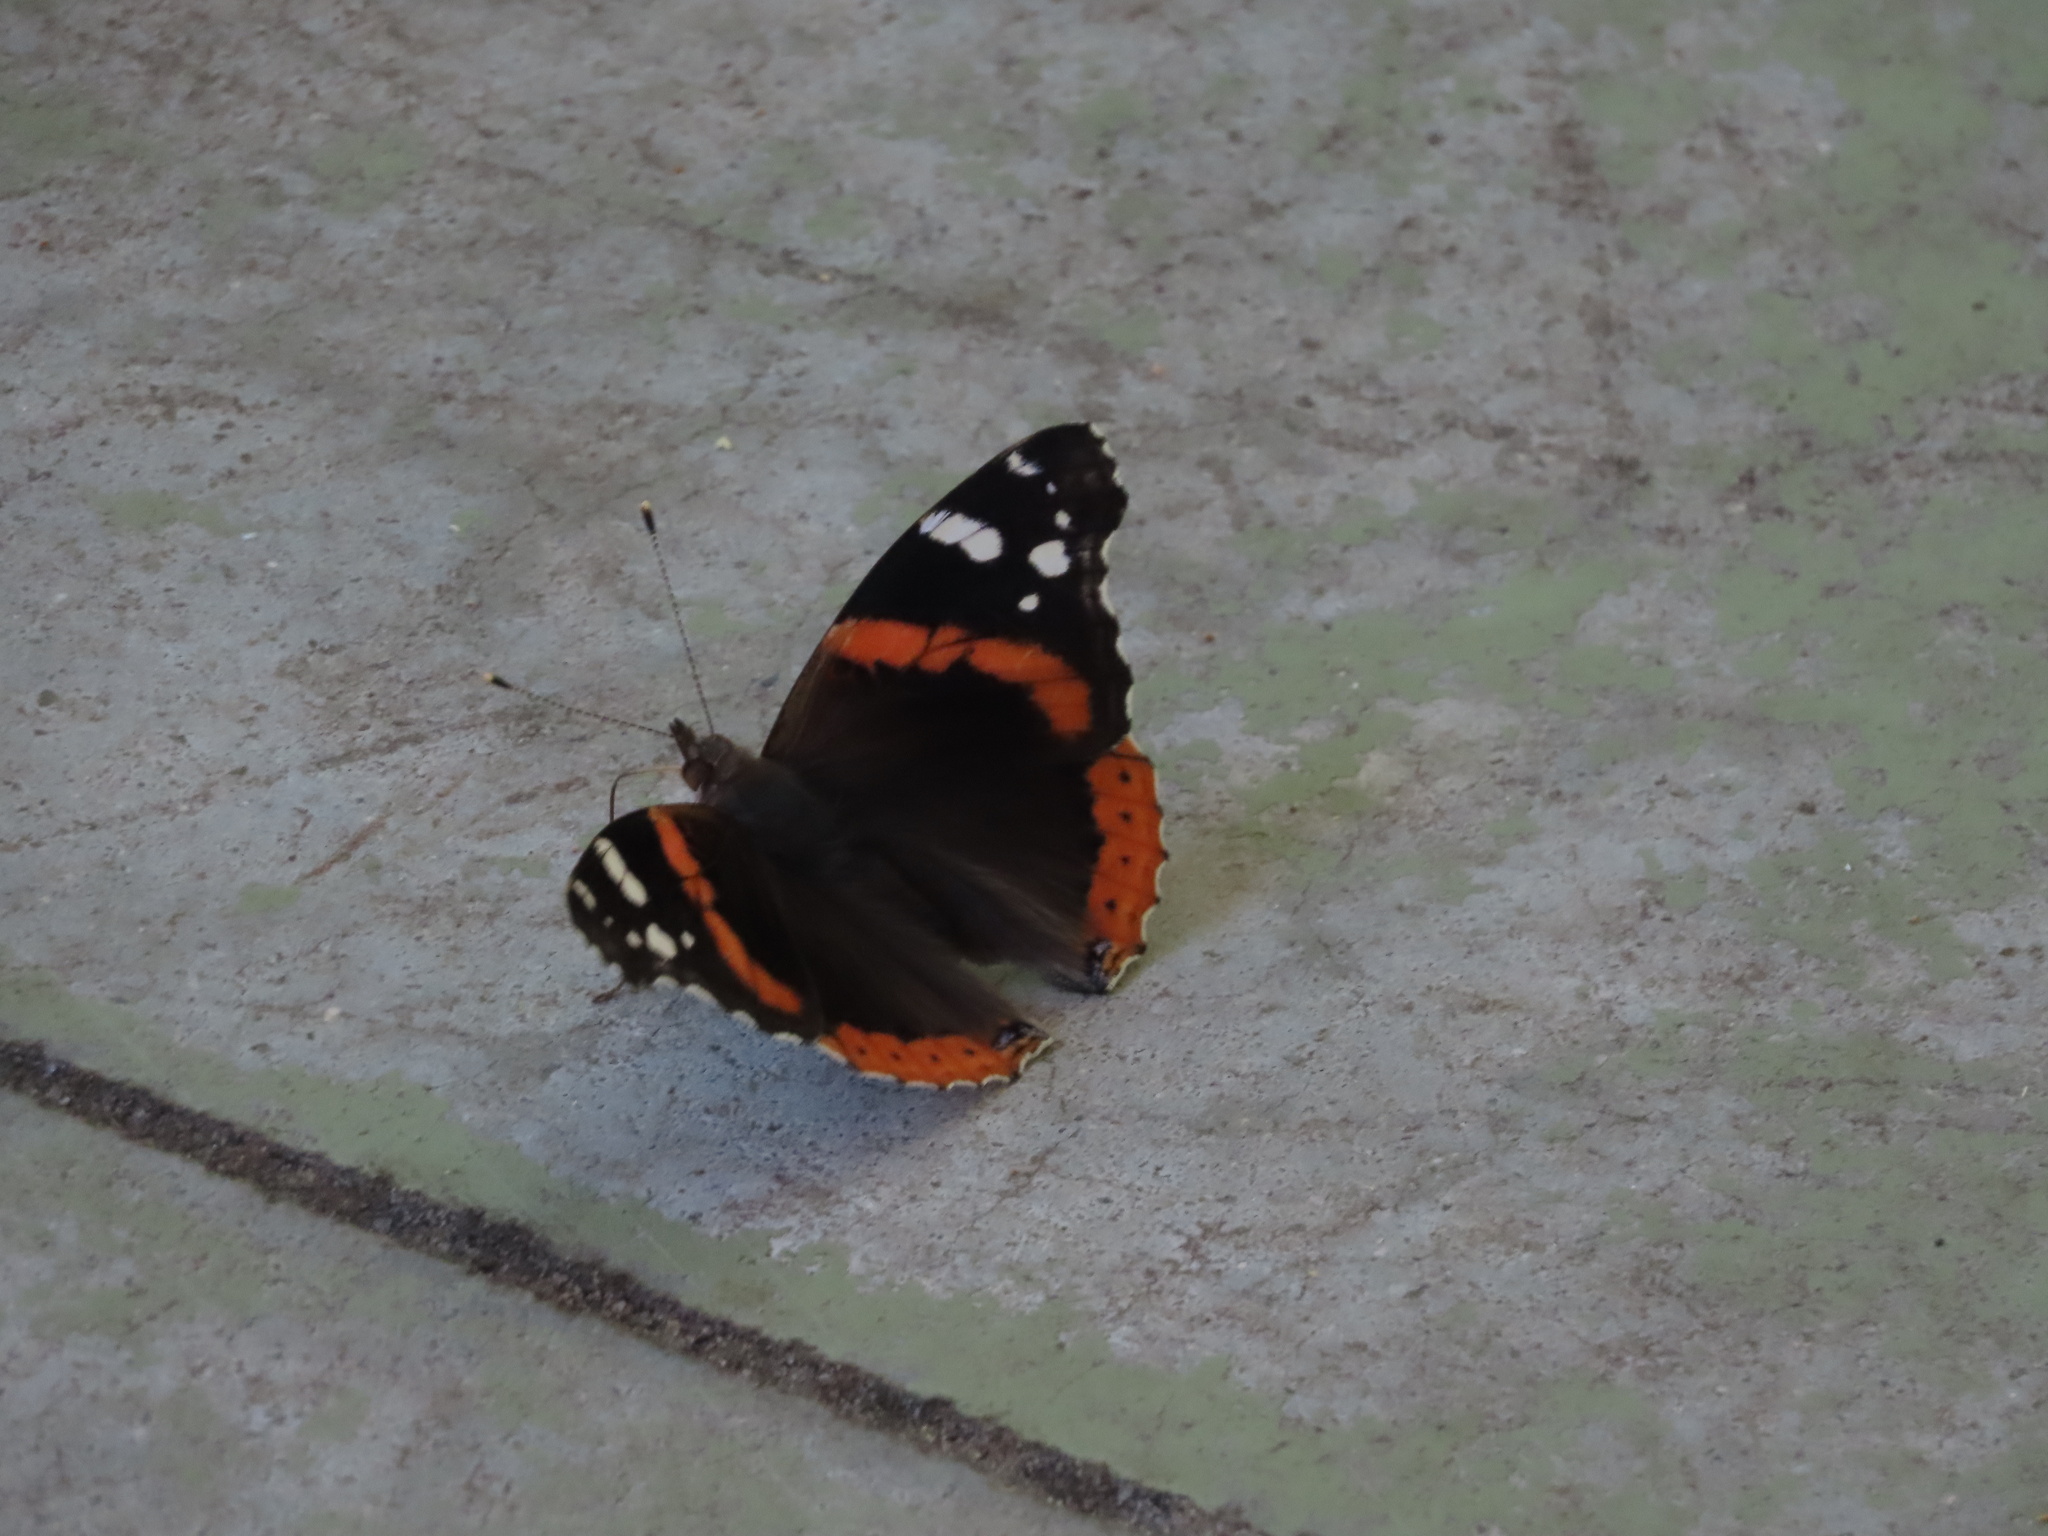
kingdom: Animalia
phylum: Arthropoda
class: Insecta
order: Lepidoptera
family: Nymphalidae
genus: Vanessa
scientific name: Vanessa atalanta
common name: Red admiral
